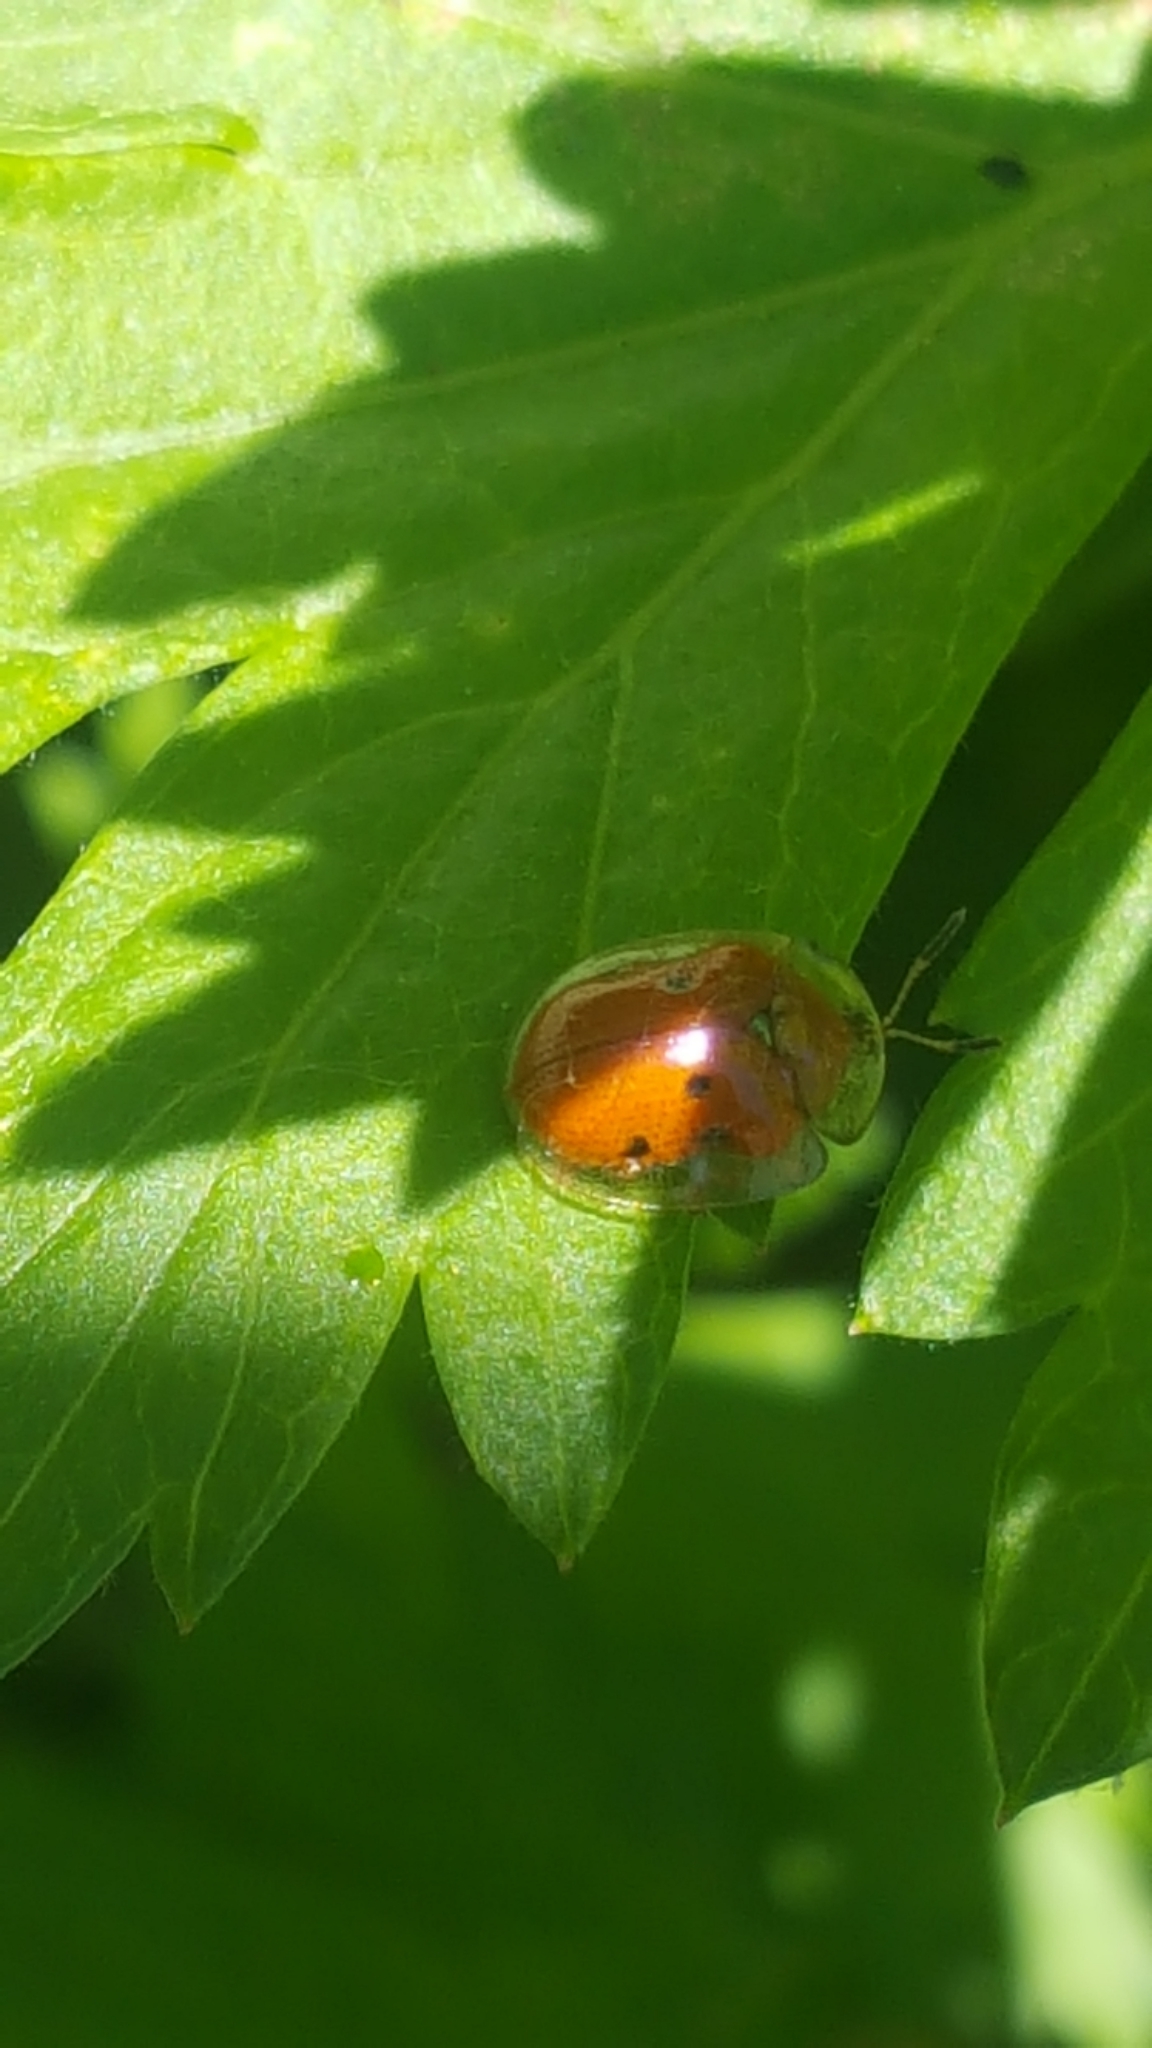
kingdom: Animalia
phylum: Arthropoda
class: Insecta
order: Coleoptera
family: Chrysomelidae
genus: Charidotella
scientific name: Charidotella sexpunctata
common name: Golden tortoise beetle
